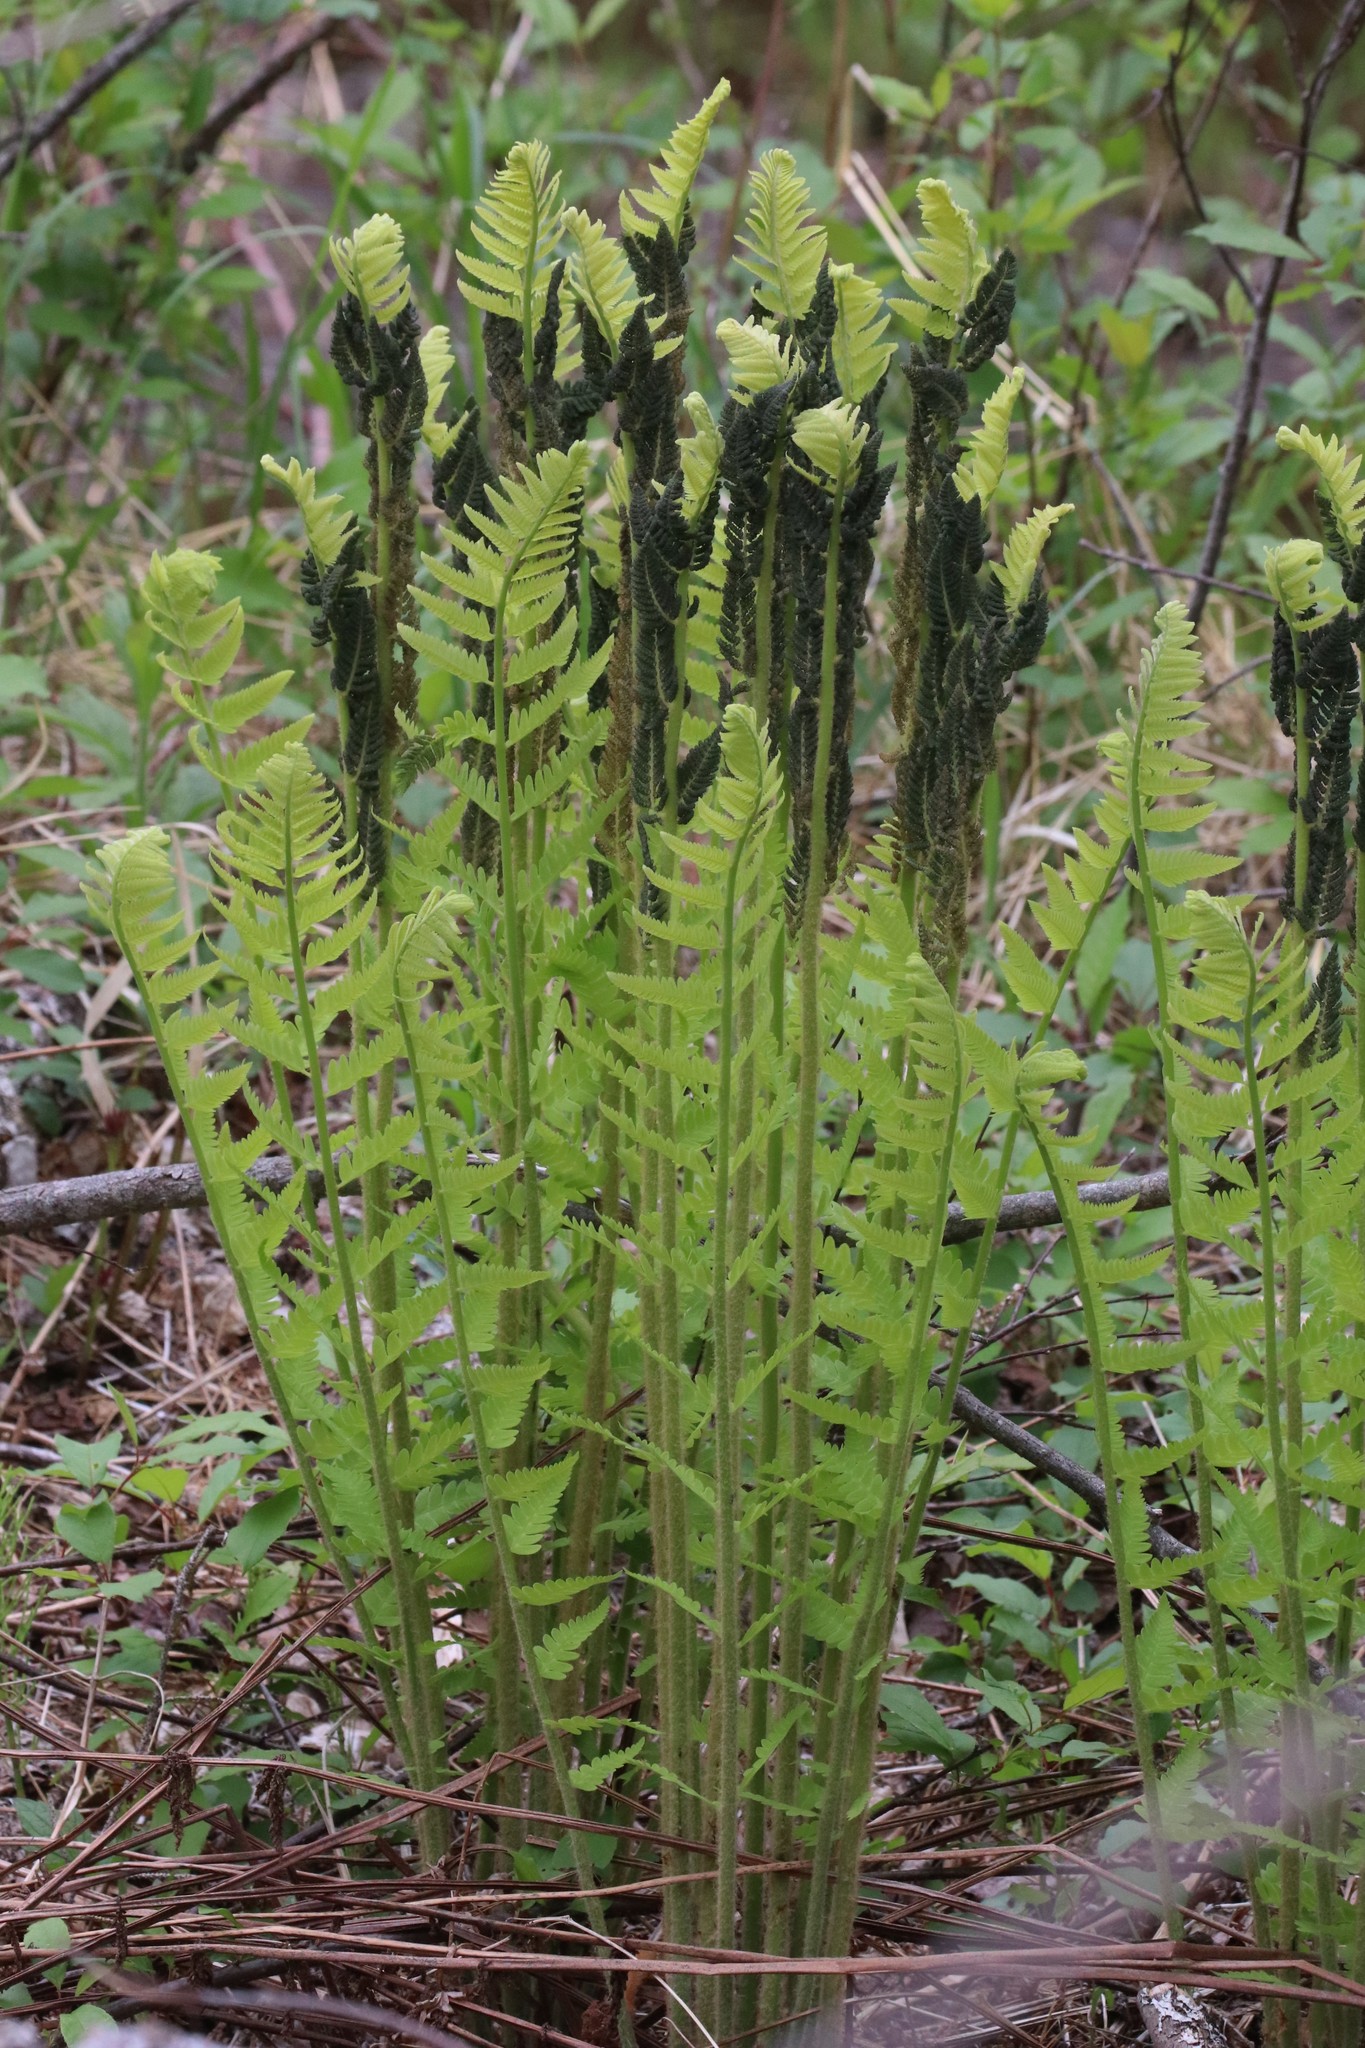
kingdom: Plantae
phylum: Tracheophyta
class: Polypodiopsida
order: Osmundales
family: Osmundaceae
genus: Claytosmunda
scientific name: Claytosmunda claytoniana
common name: Clayton's fern
